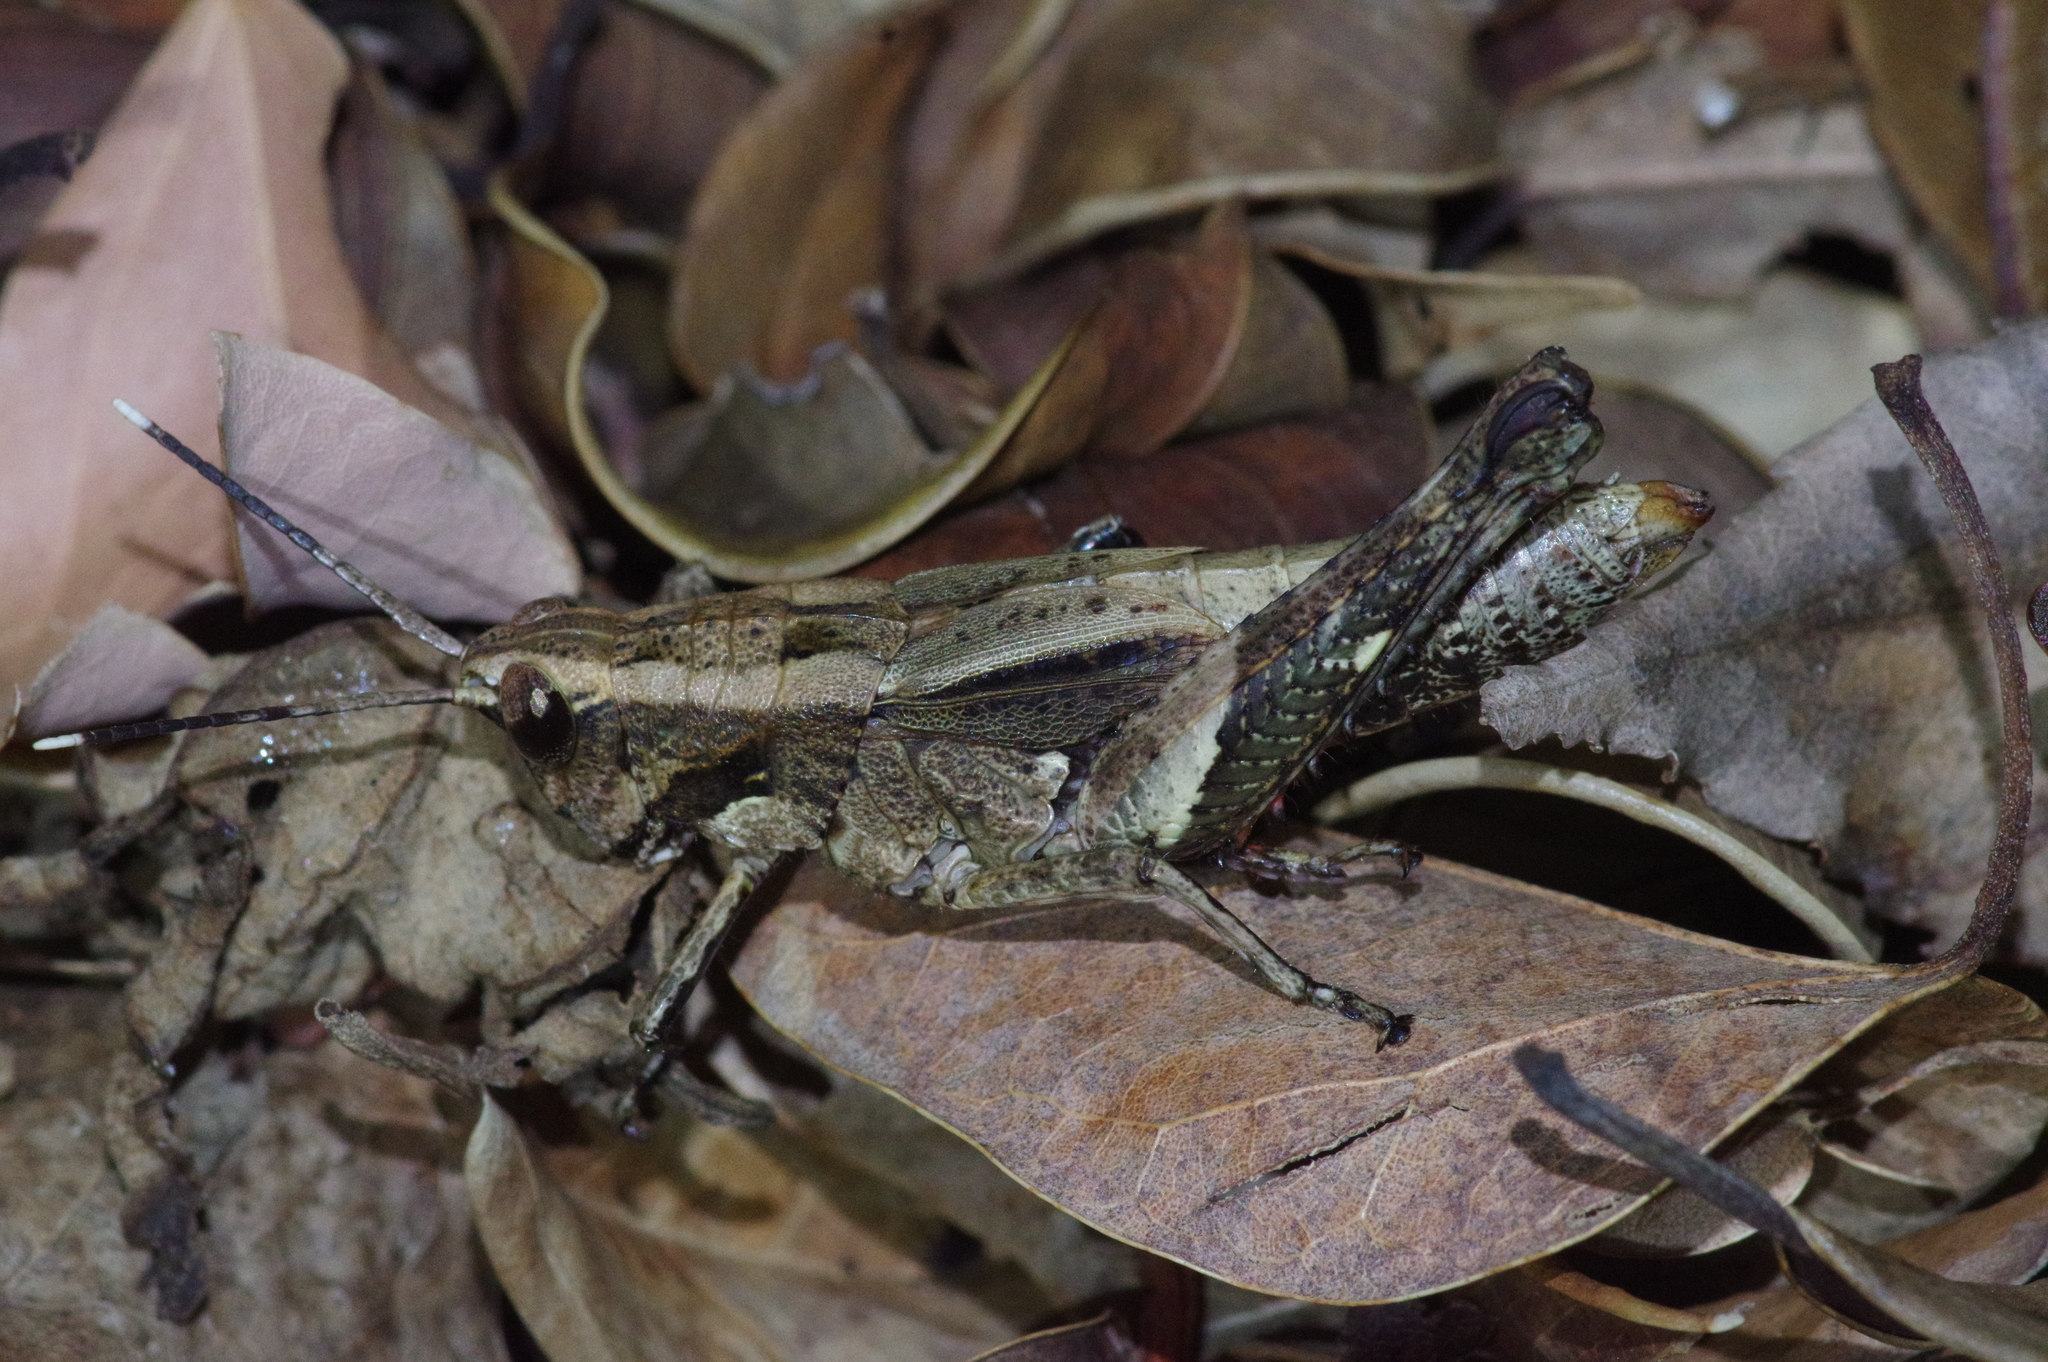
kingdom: Animalia
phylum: Arthropoda
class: Insecta
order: Orthoptera
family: Acrididae
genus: Traulia
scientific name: Traulia ornata
